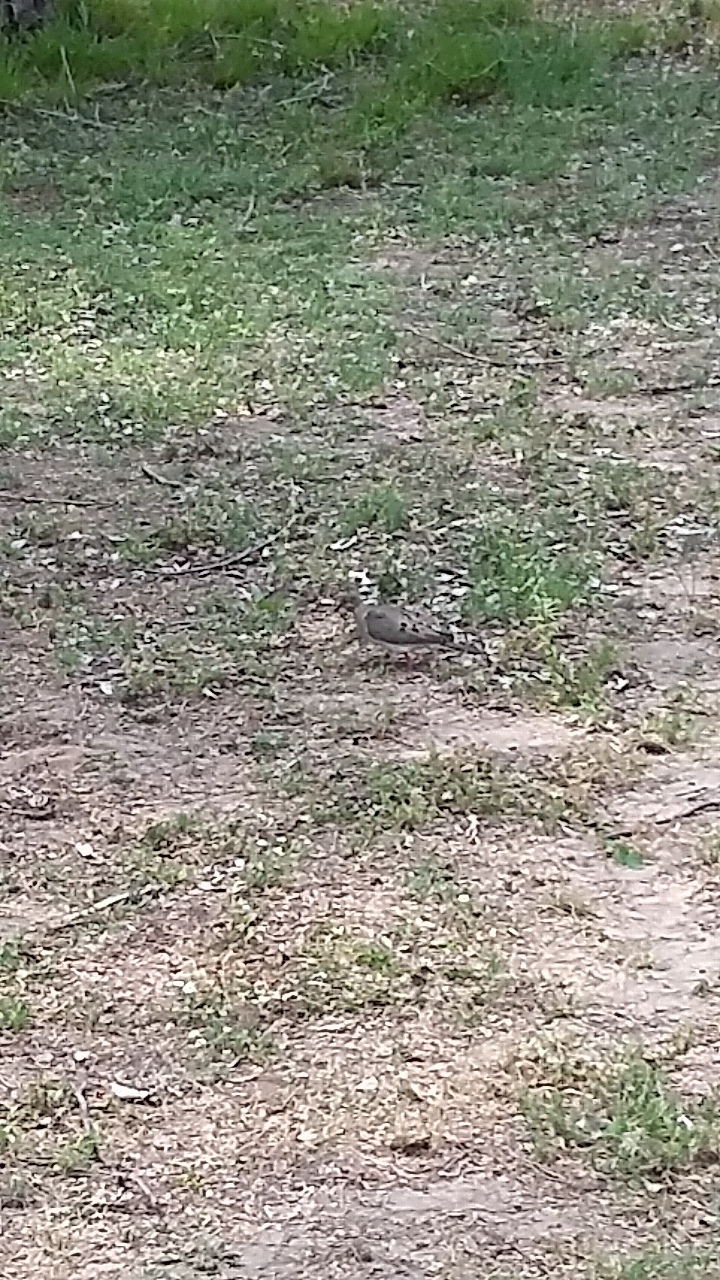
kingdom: Animalia
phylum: Chordata
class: Aves
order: Columbiformes
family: Columbidae
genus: Zenaida
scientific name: Zenaida macroura
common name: Mourning dove
